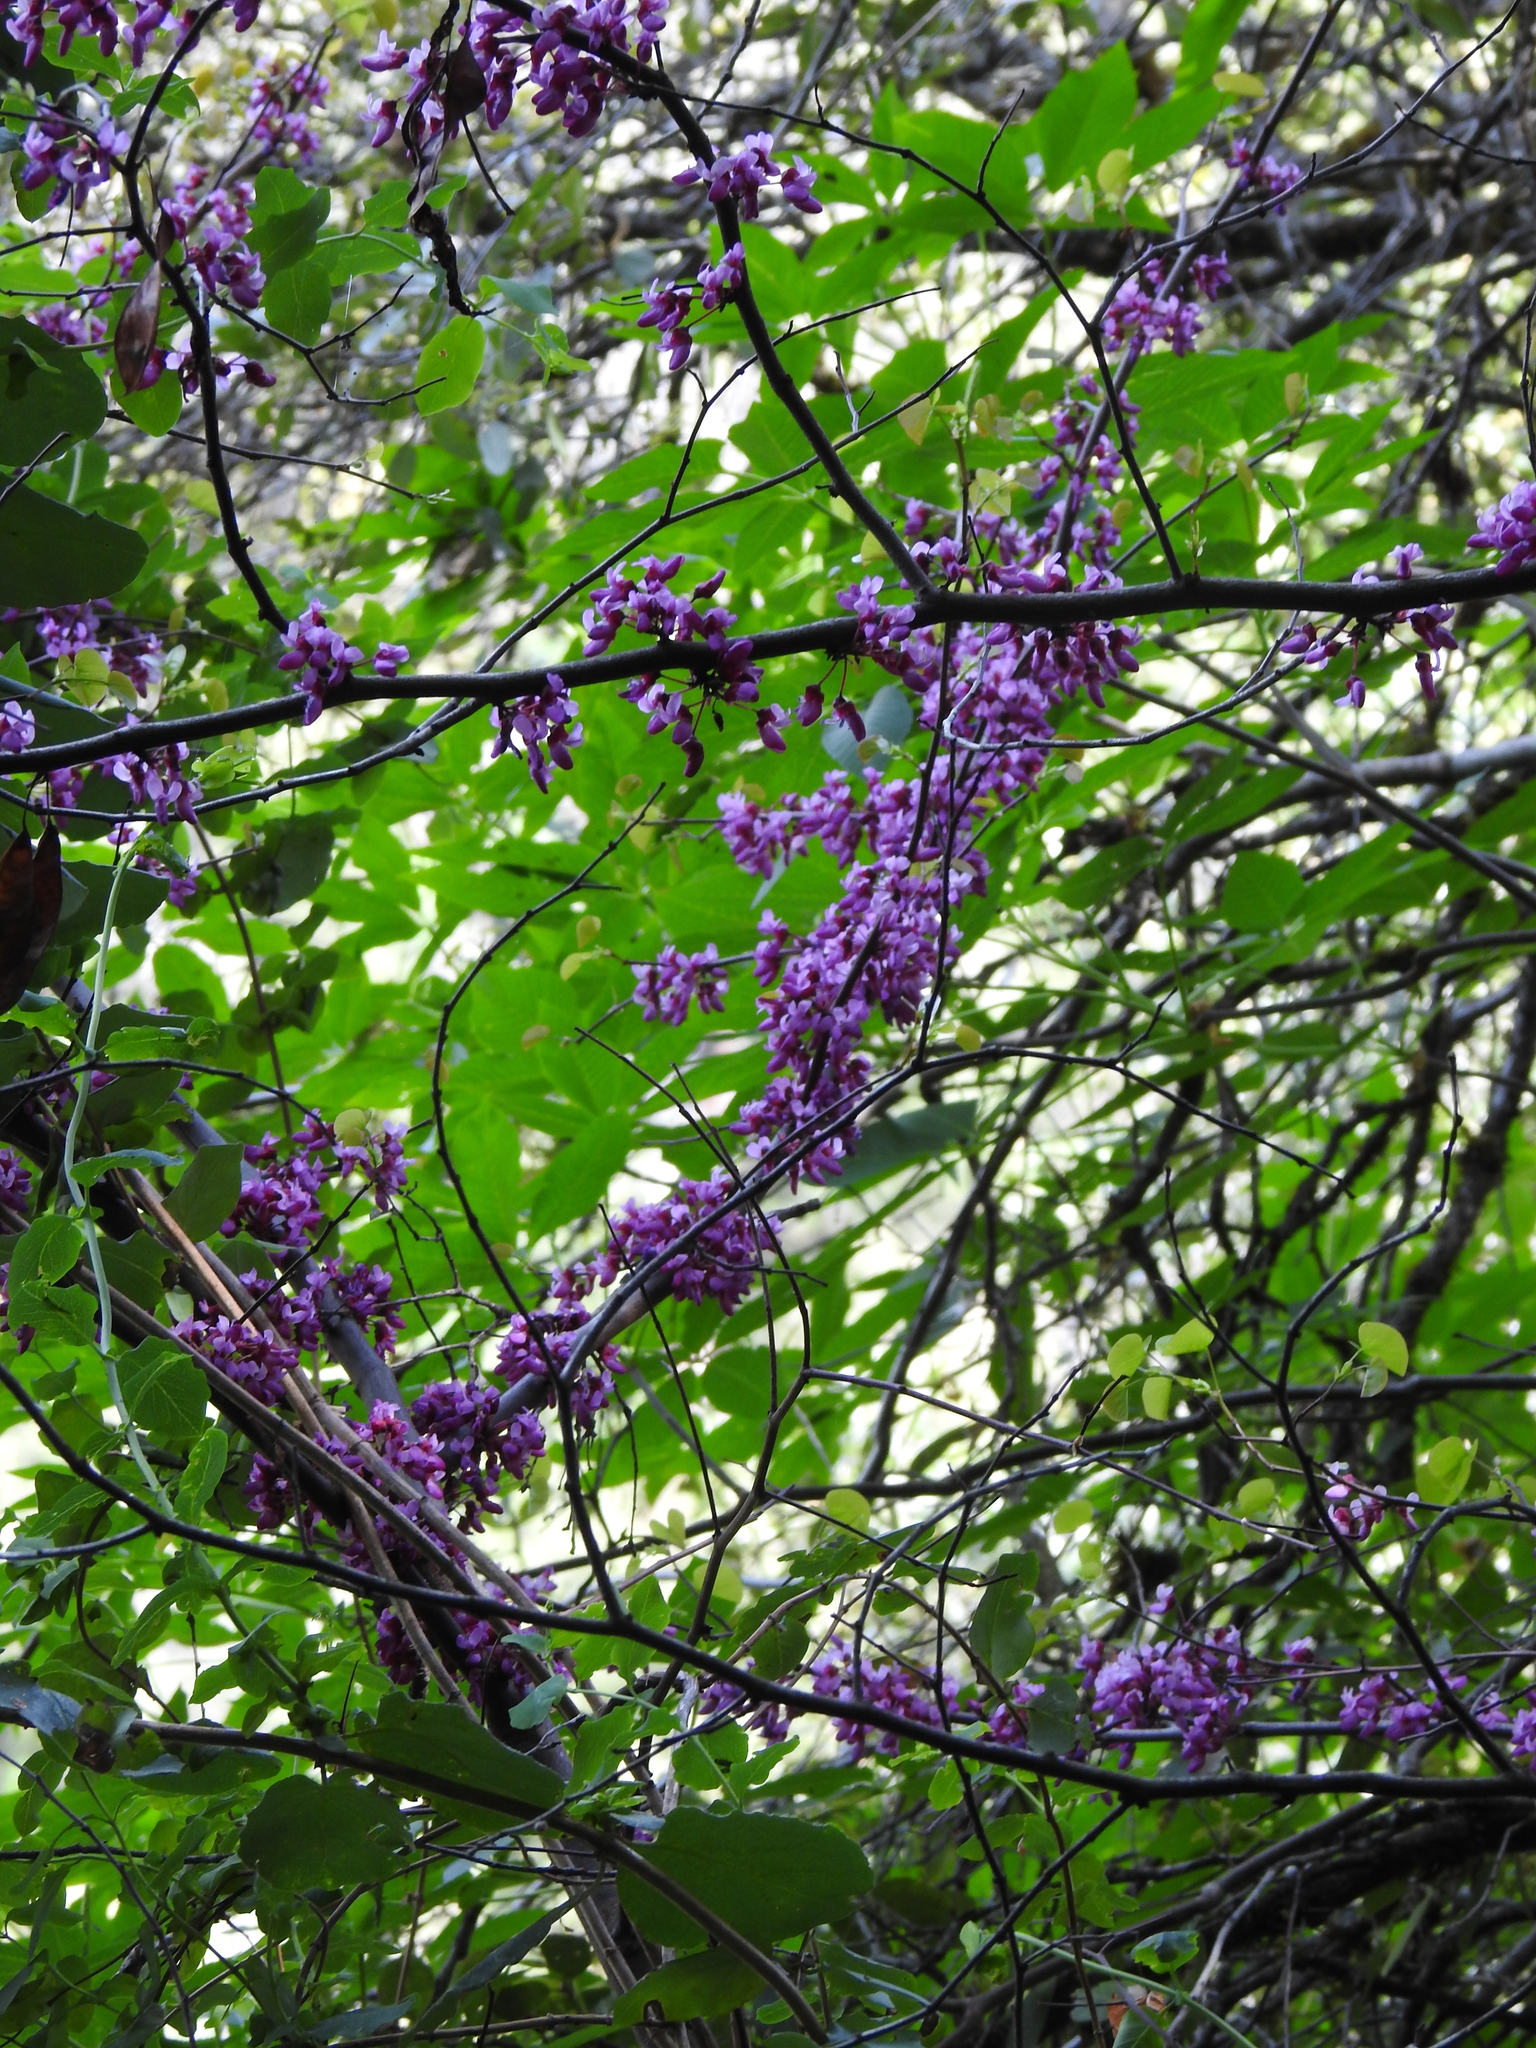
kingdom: Plantae
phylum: Tracheophyta
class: Magnoliopsida
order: Fabales
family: Fabaceae
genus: Cercis
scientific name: Cercis occidentalis
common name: California redbud
